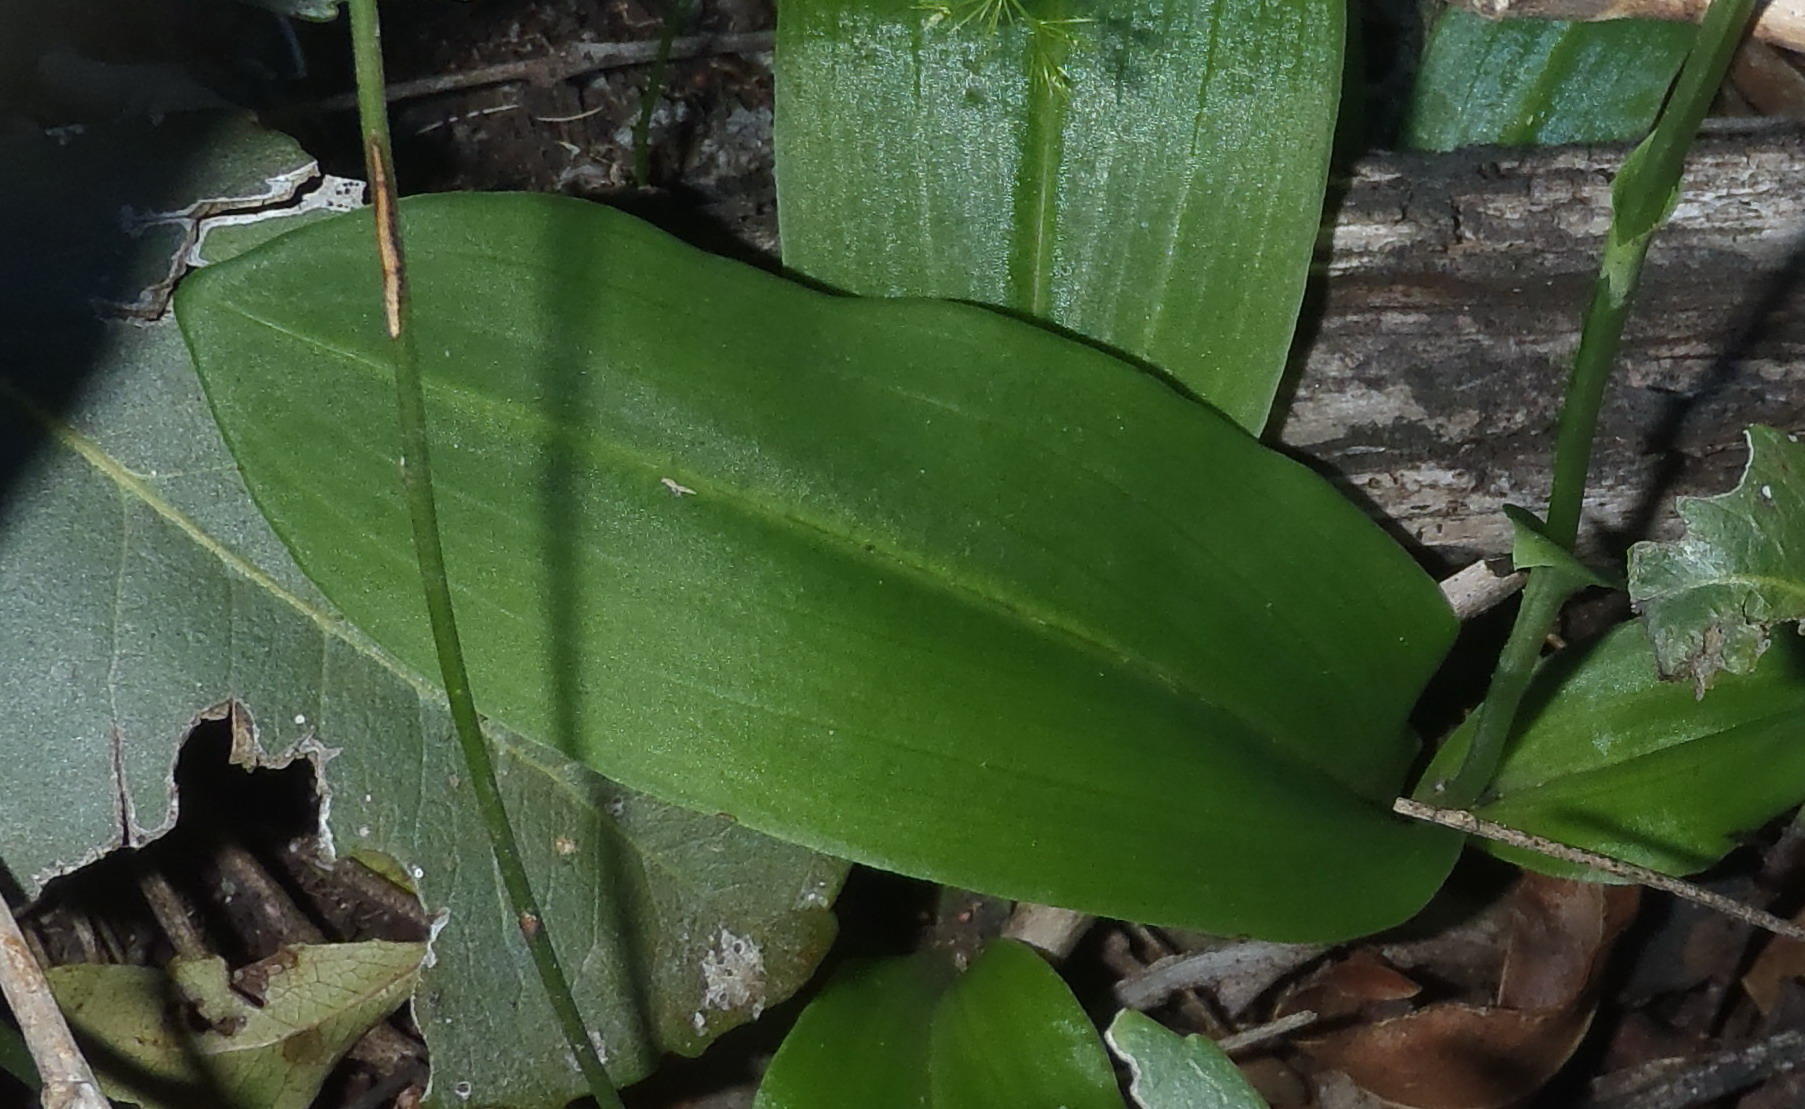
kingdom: Plantae
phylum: Tracheophyta
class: Liliopsida
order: Asparagales
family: Orchidaceae
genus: Habenaria
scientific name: Habenaria arenaria
